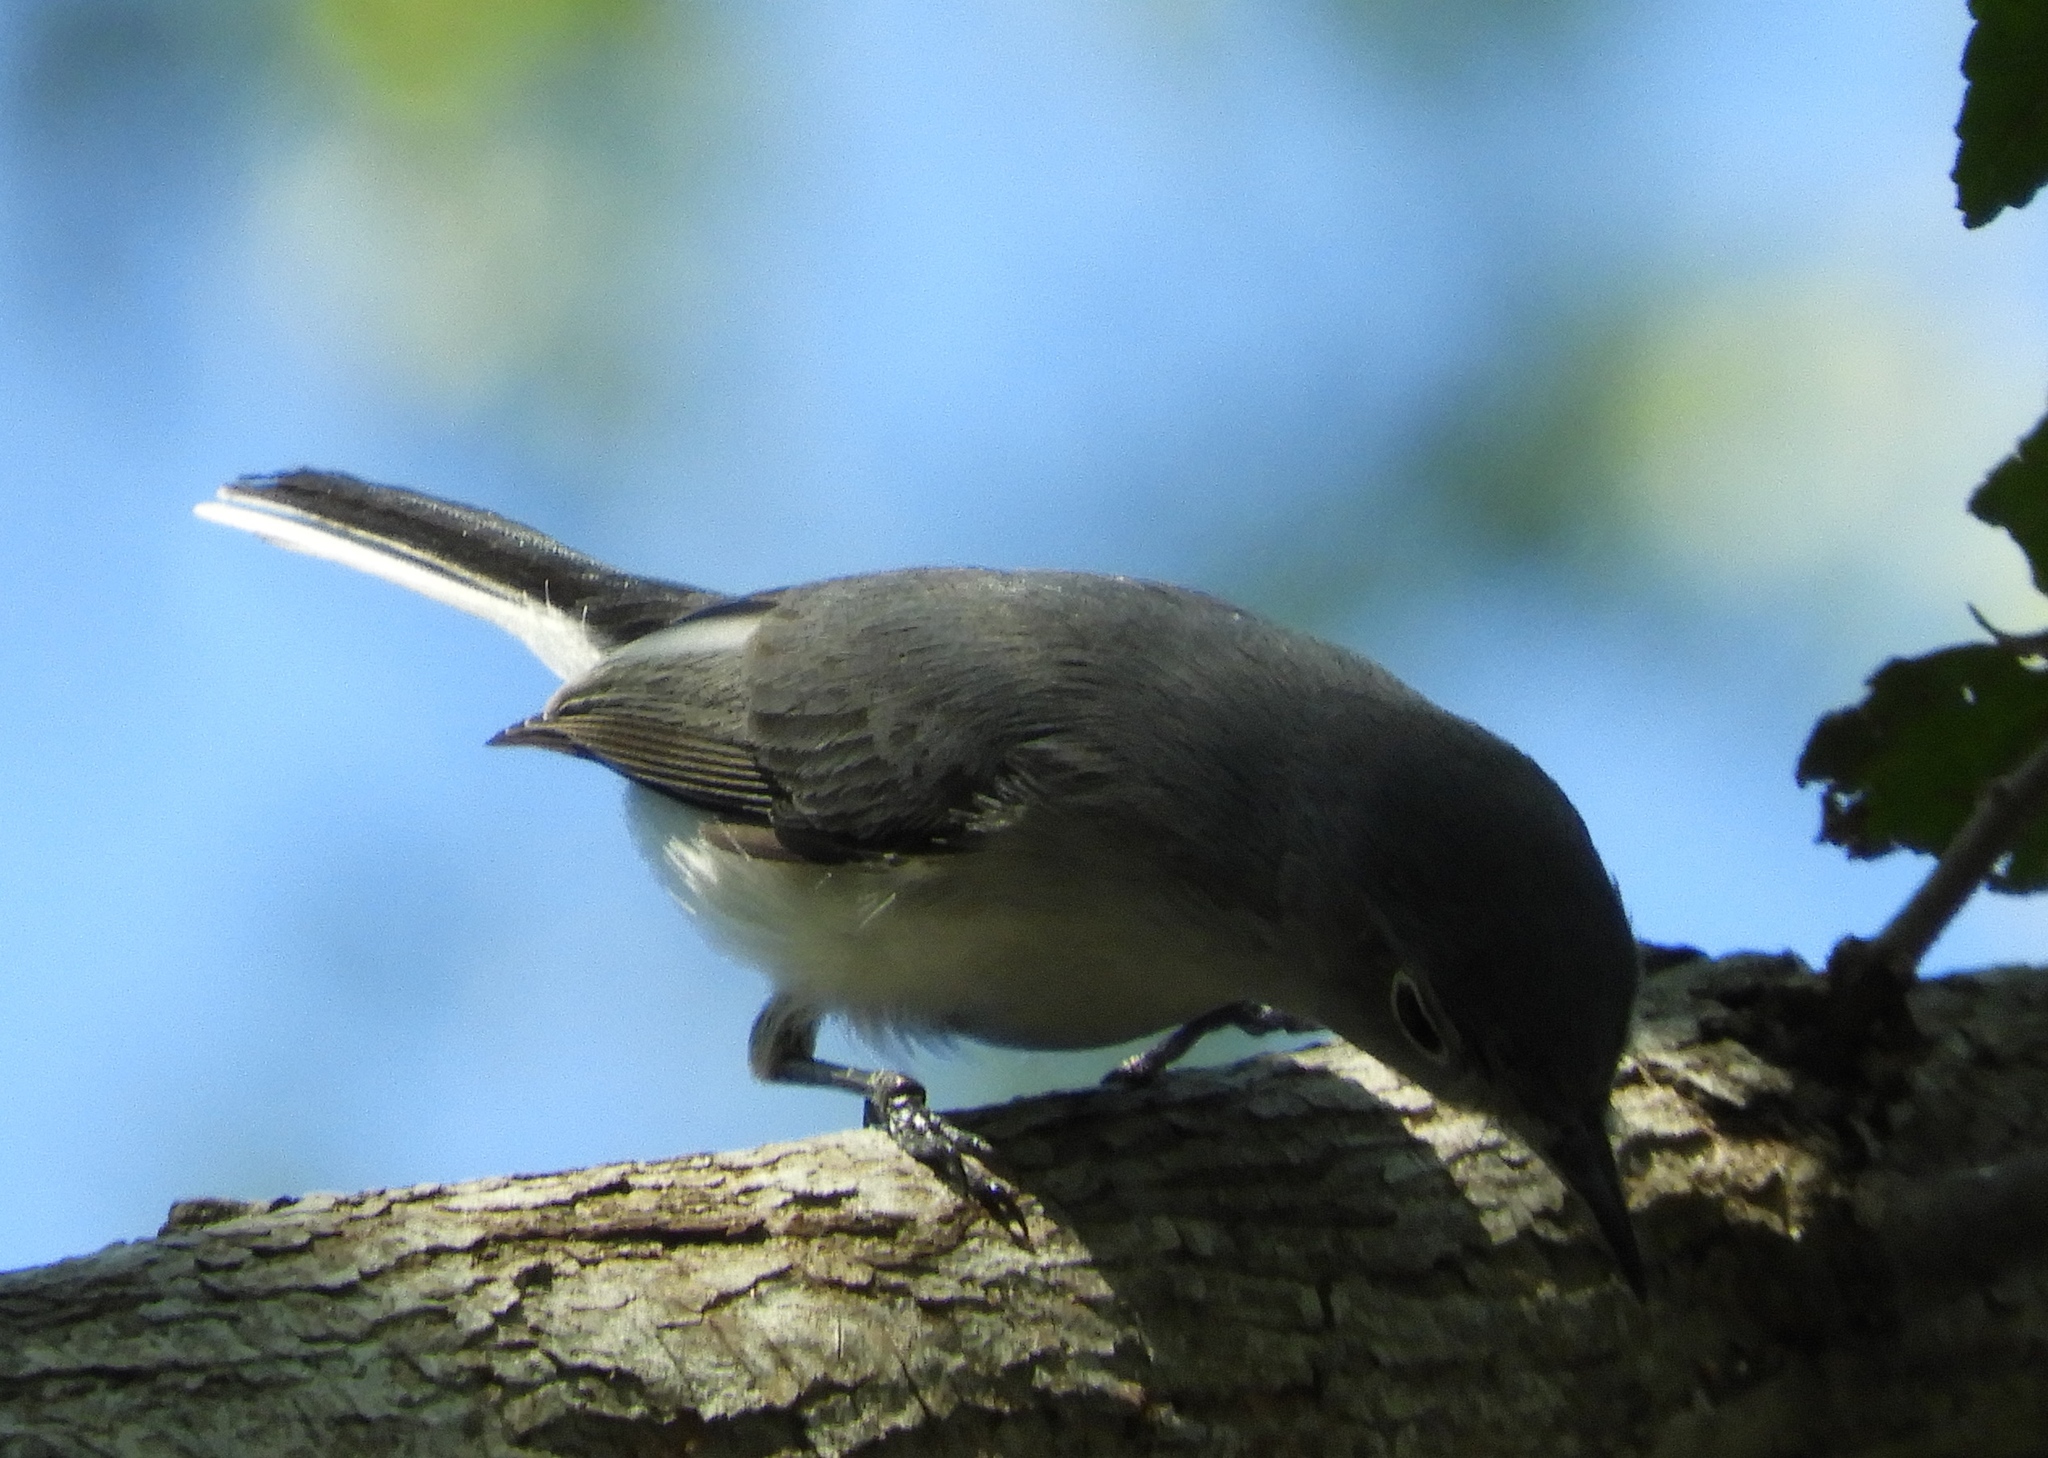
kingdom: Animalia
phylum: Chordata
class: Aves
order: Passeriformes
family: Polioptilidae
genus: Polioptila
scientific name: Polioptila caerulea
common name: Blue-gray gnatcatcher
